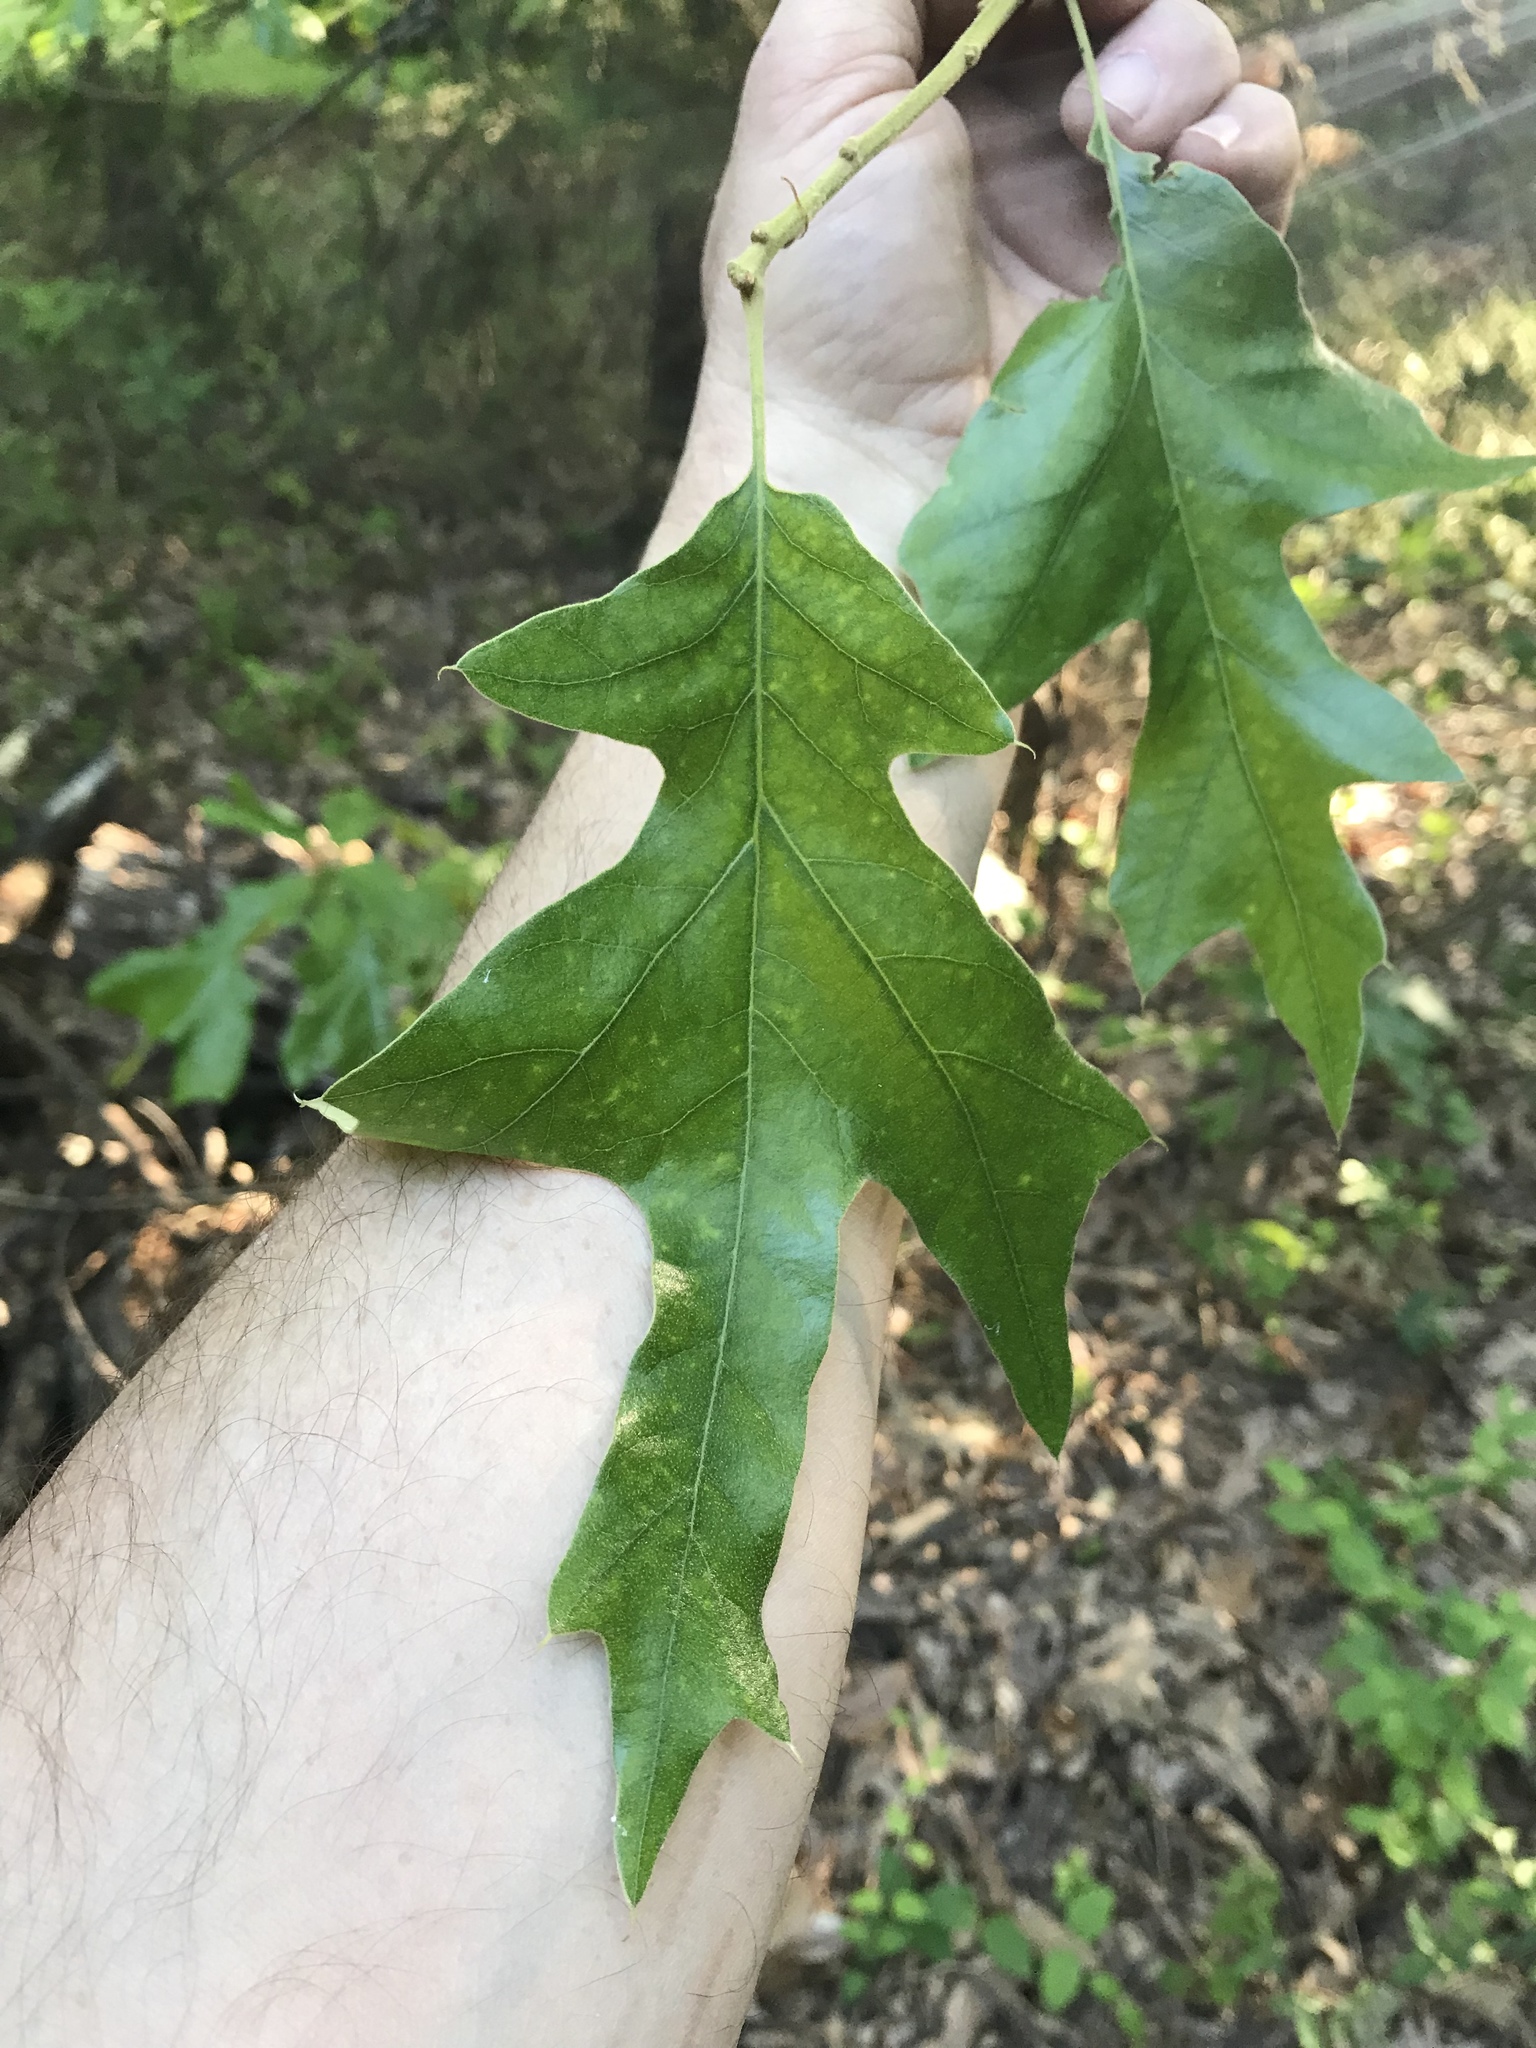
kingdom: Plantae
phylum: Tracheophyta
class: Magnoliopsida
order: Fagales
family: Fagaceae
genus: Quercus
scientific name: Quercus falcata
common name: Southern red oak
